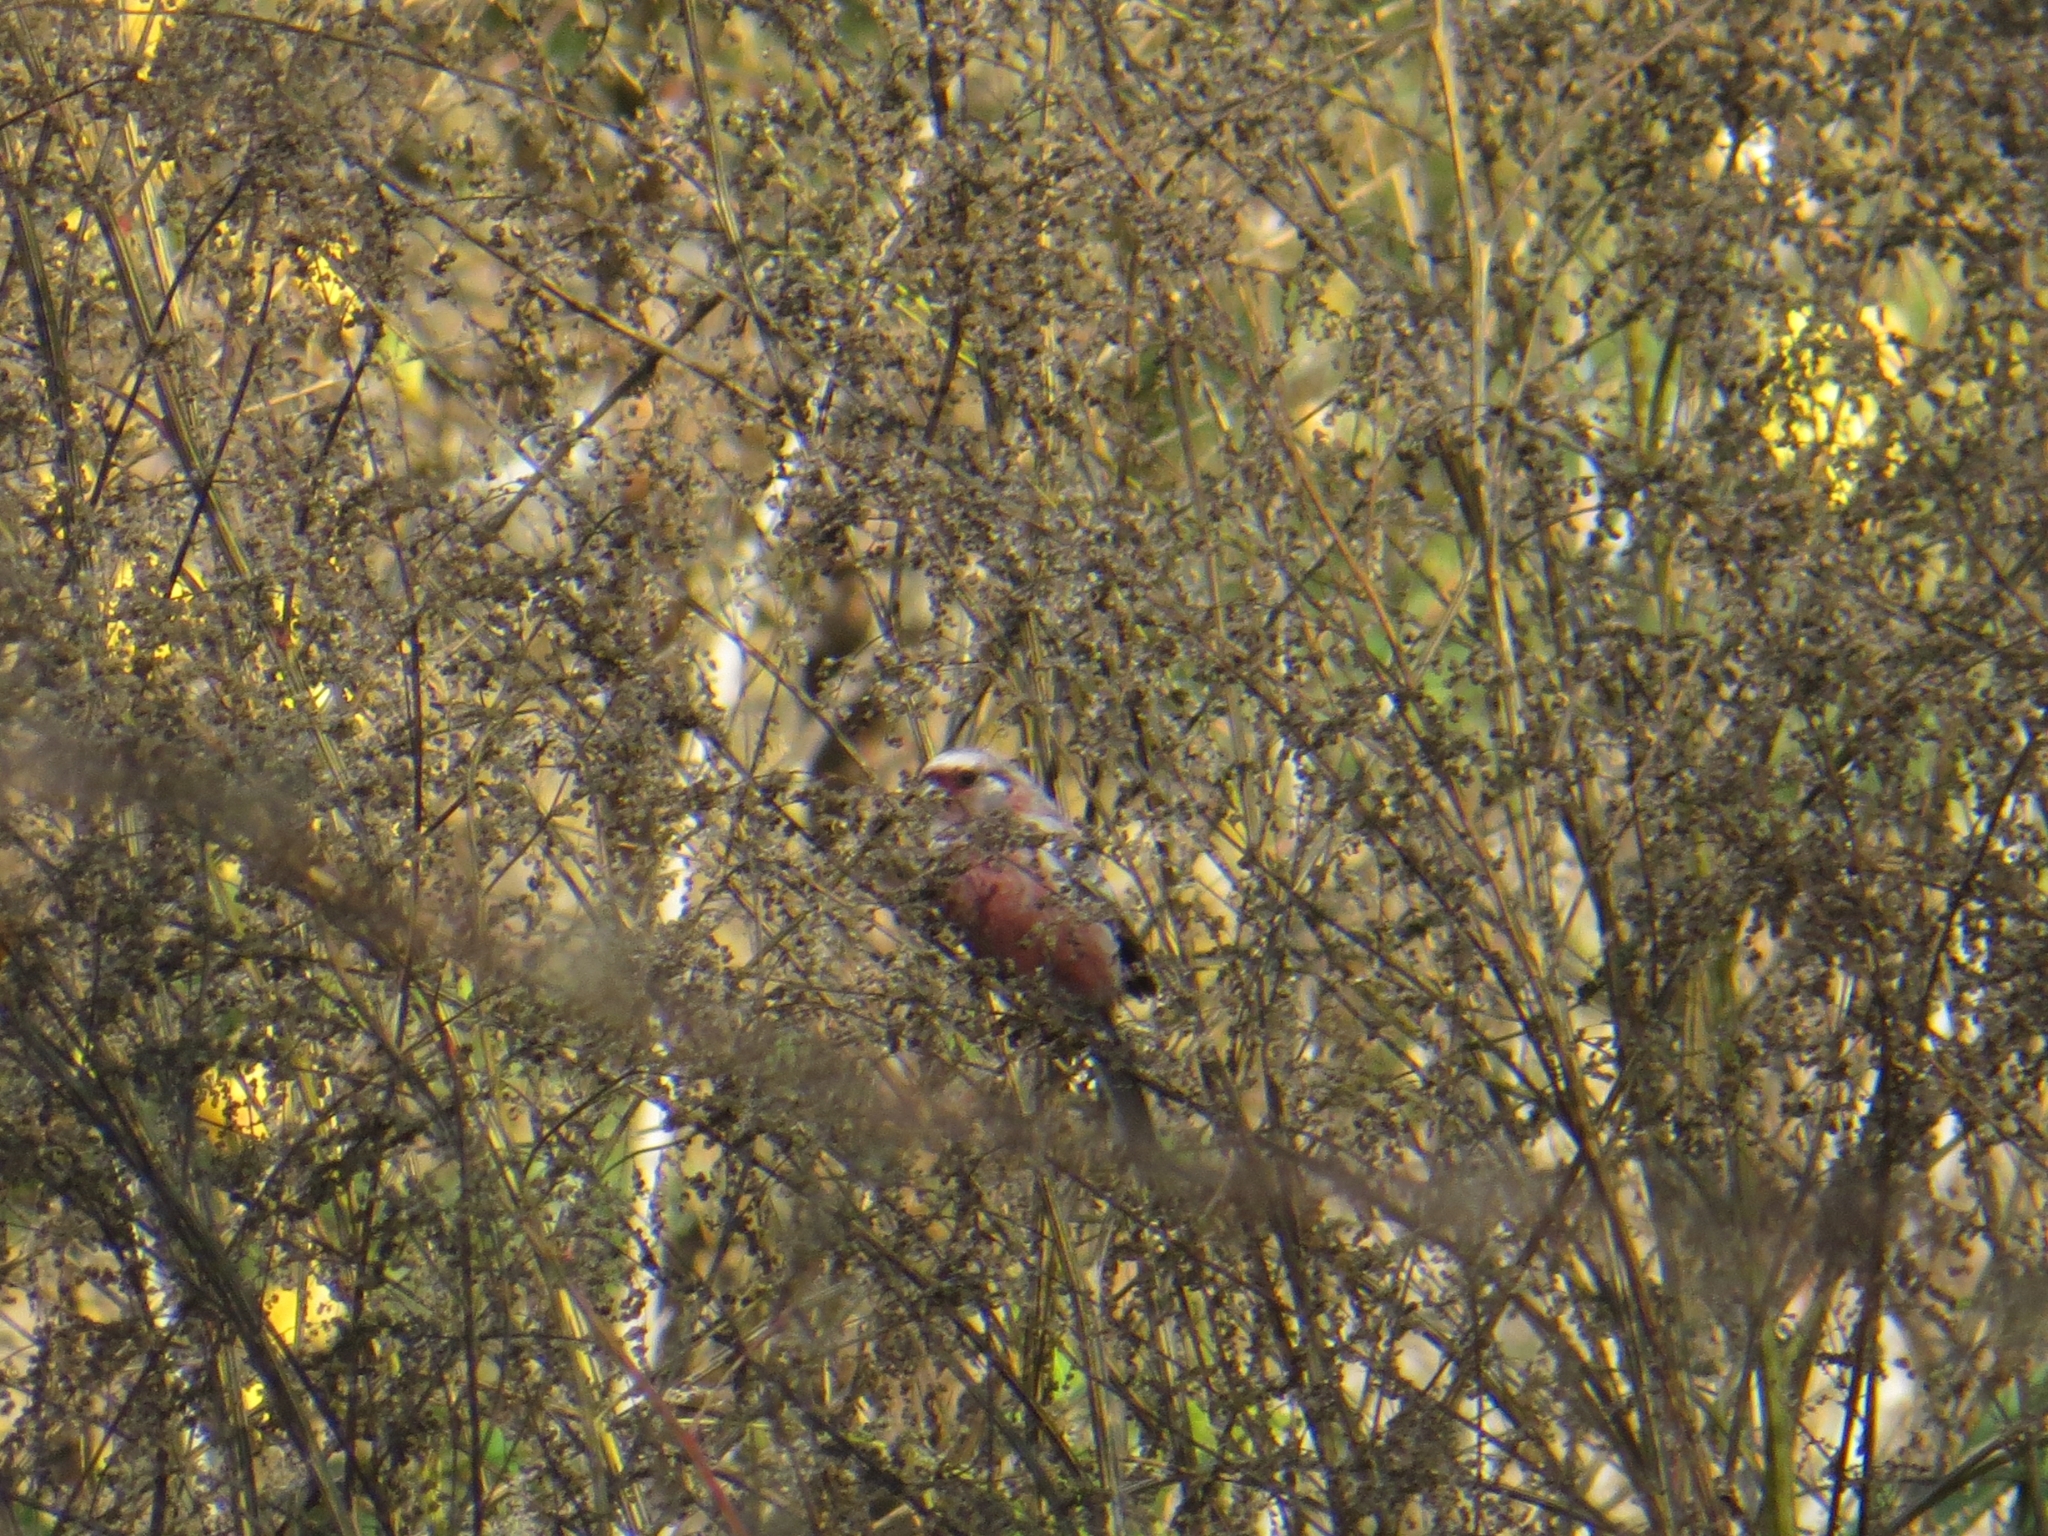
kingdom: Animalia
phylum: Chordata
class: Aves
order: Passeriformes
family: Fringillidae
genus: Carpodacus
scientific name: Carpodacus sibiricus
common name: Long-tailed rosefinch
